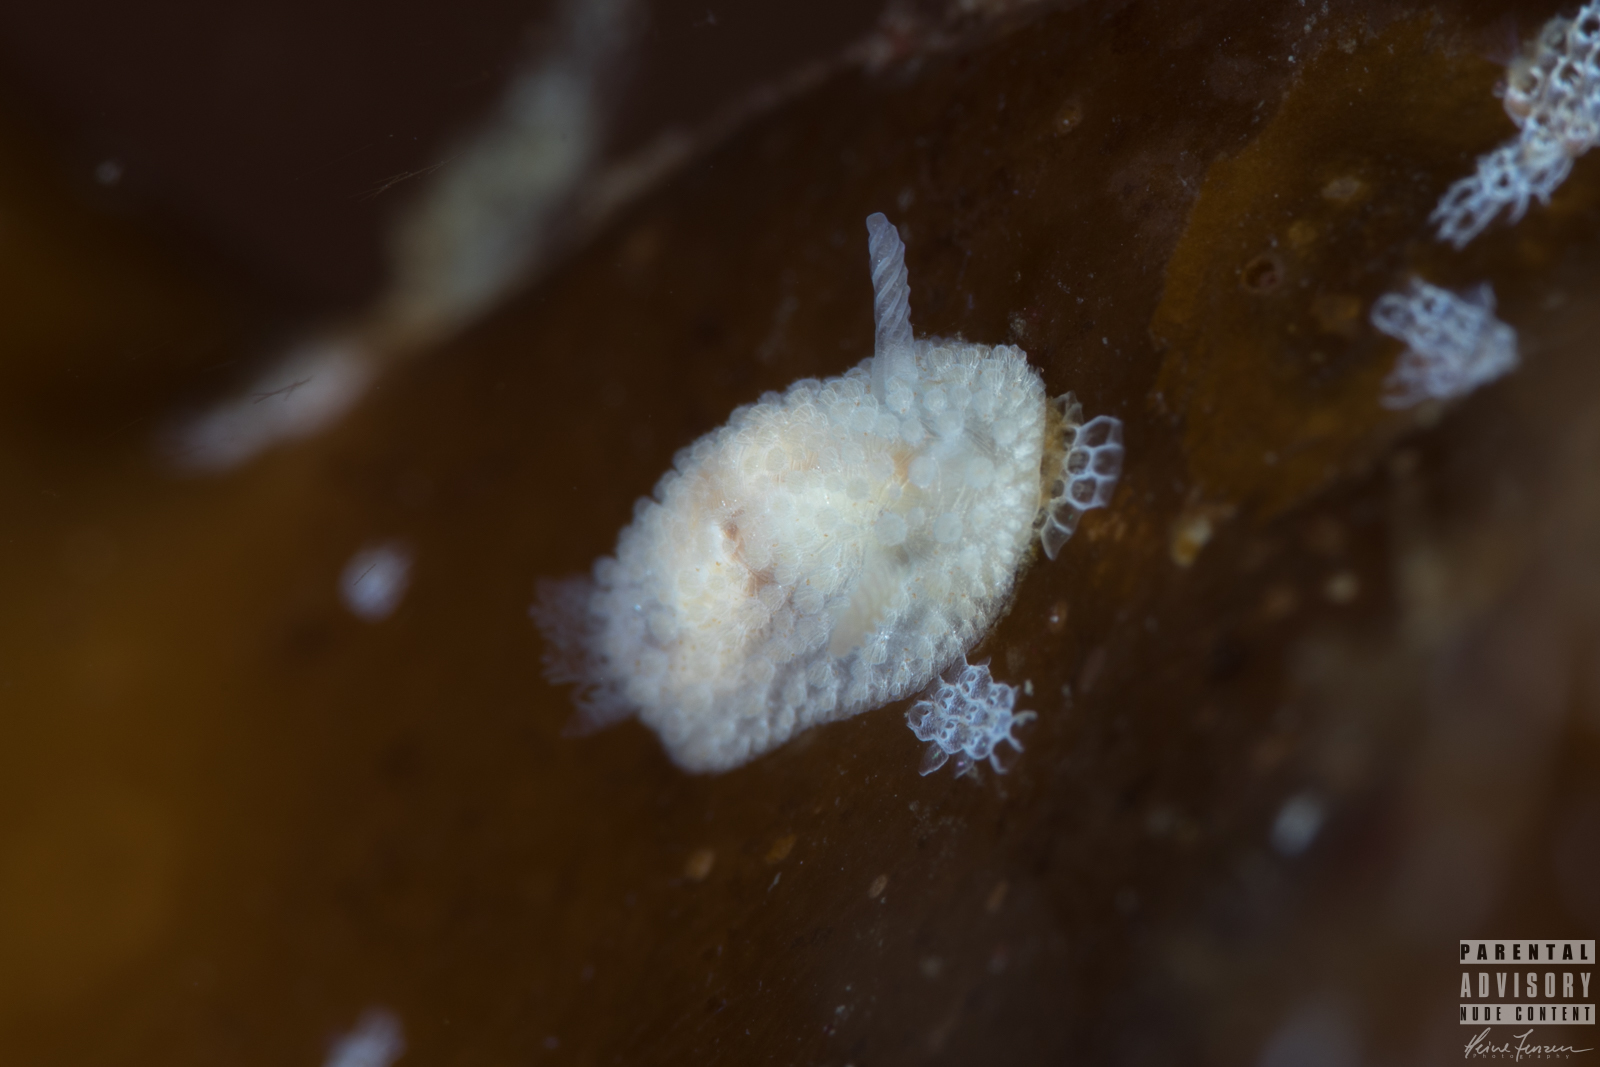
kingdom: Animalia
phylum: Mollusca
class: Gastropoda
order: Nudibranchia
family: Onchidorididae
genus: Onchidoris
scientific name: Onchidoris muricata
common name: Rough doris
